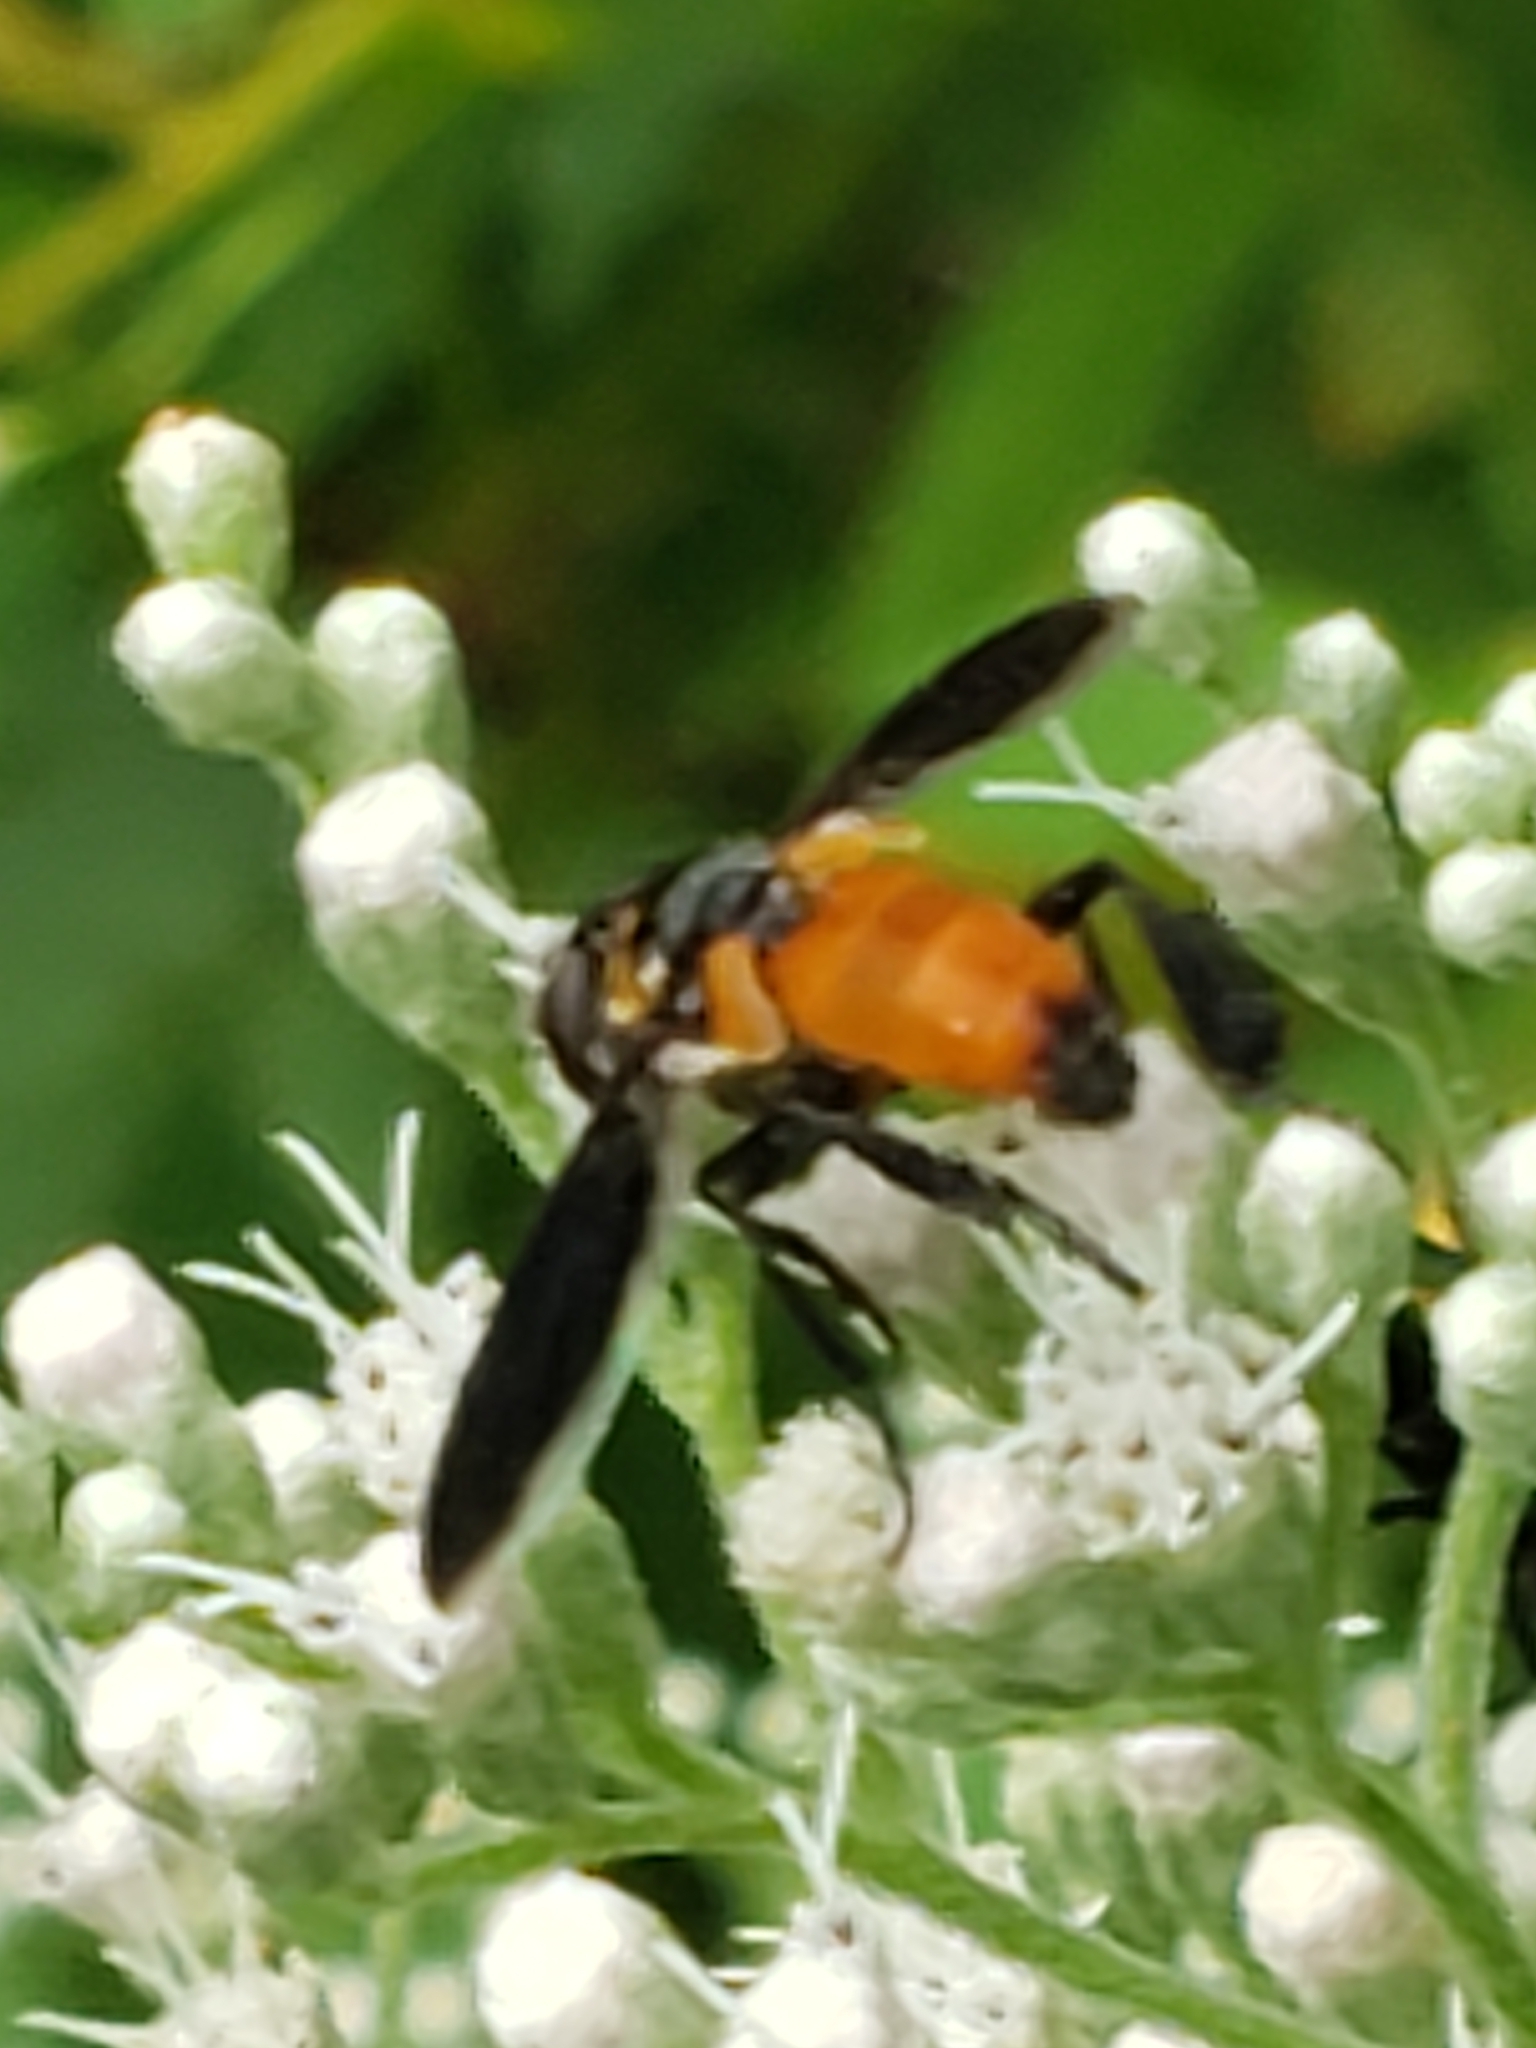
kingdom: Animalia
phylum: Arthropoda
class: Insecta
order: Diptera
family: Tachinidae
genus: Trichopoda
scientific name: Trichopoda pennipes
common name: Tachinid fly
